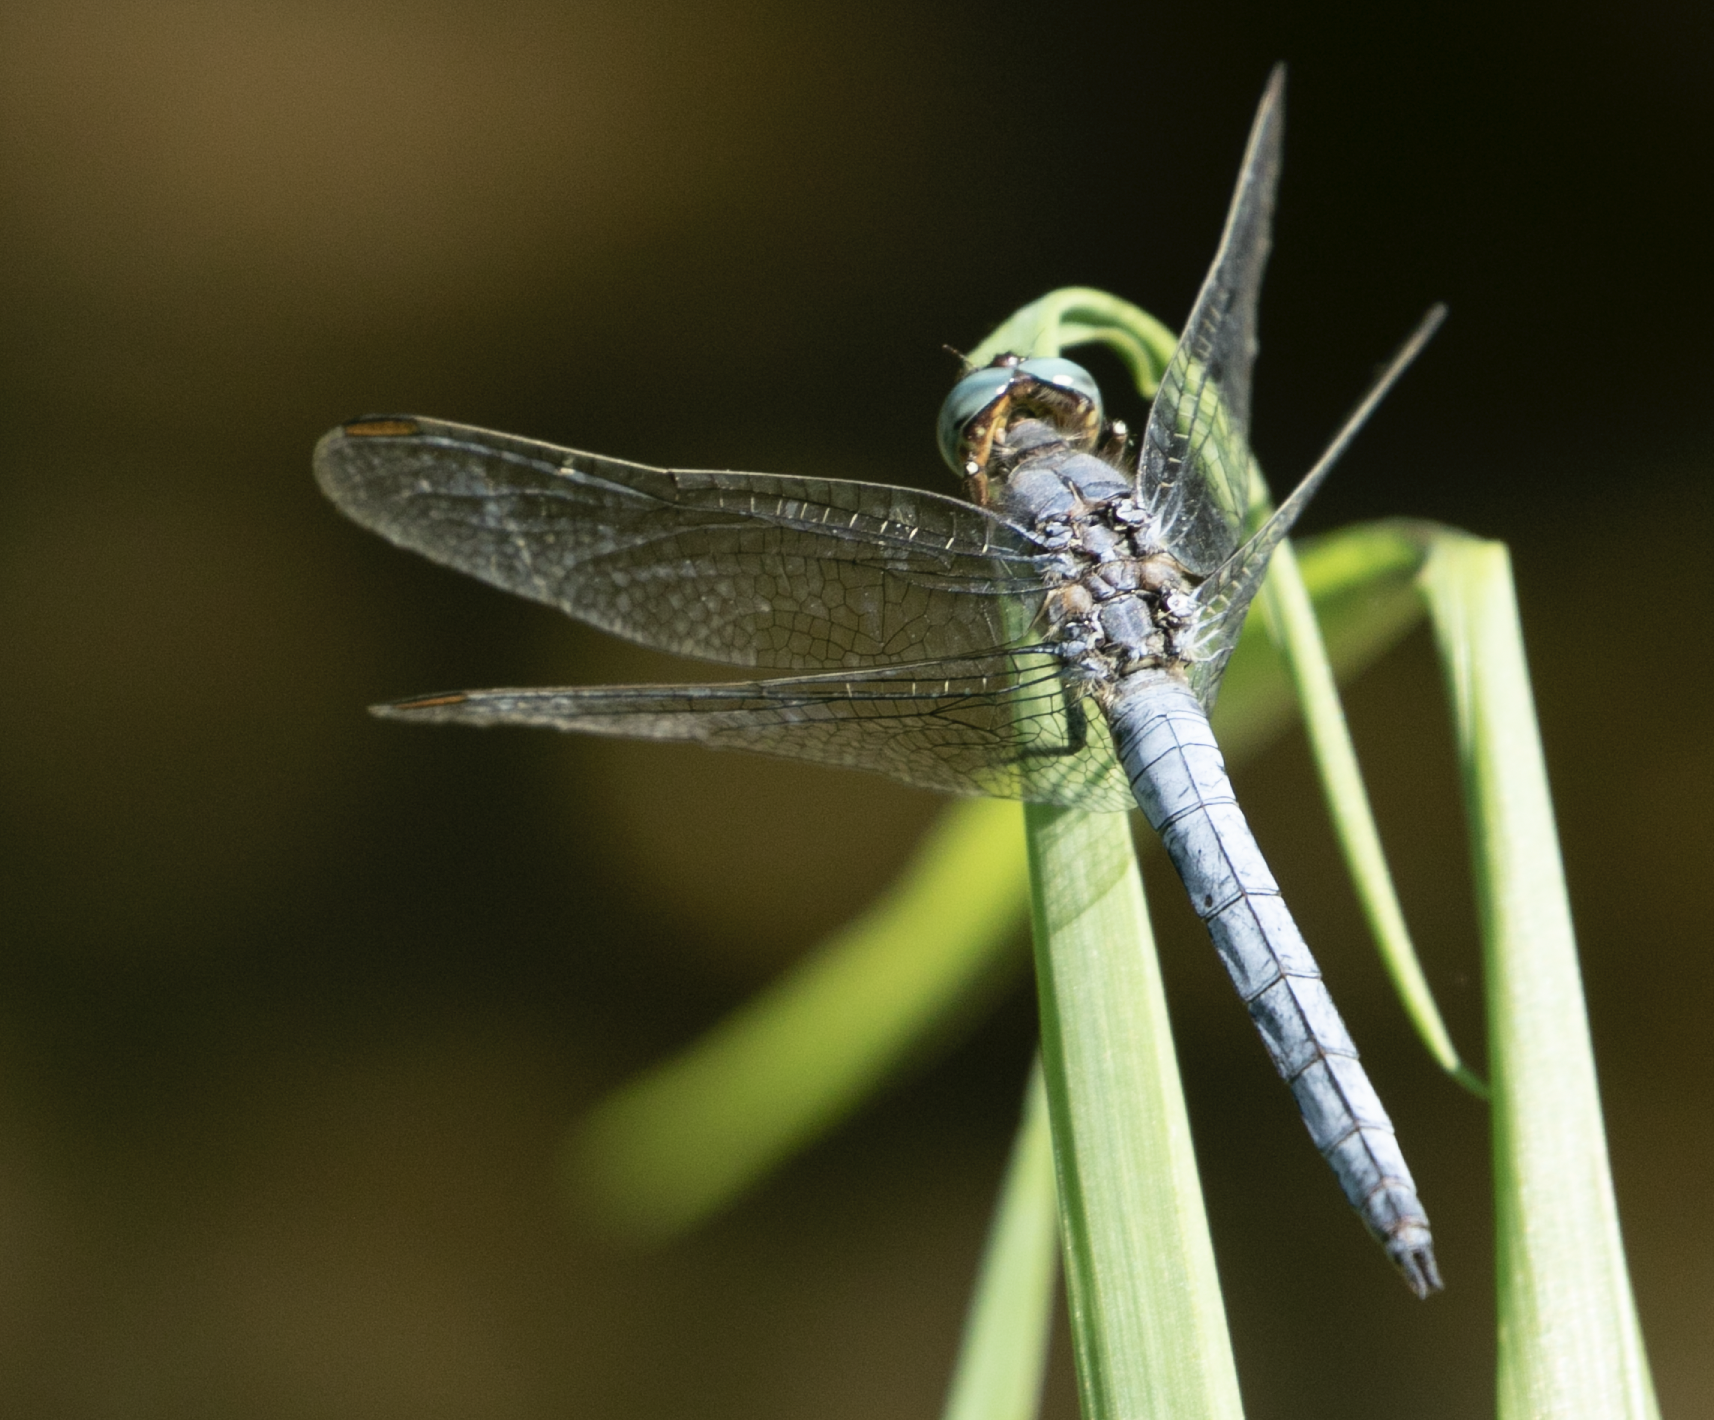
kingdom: Animalia
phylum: Arthropoda
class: Insecta
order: Odonata
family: Libellulidae
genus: Orthetrum
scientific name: Orthetrum coerulescens
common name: Keeled skimmer
